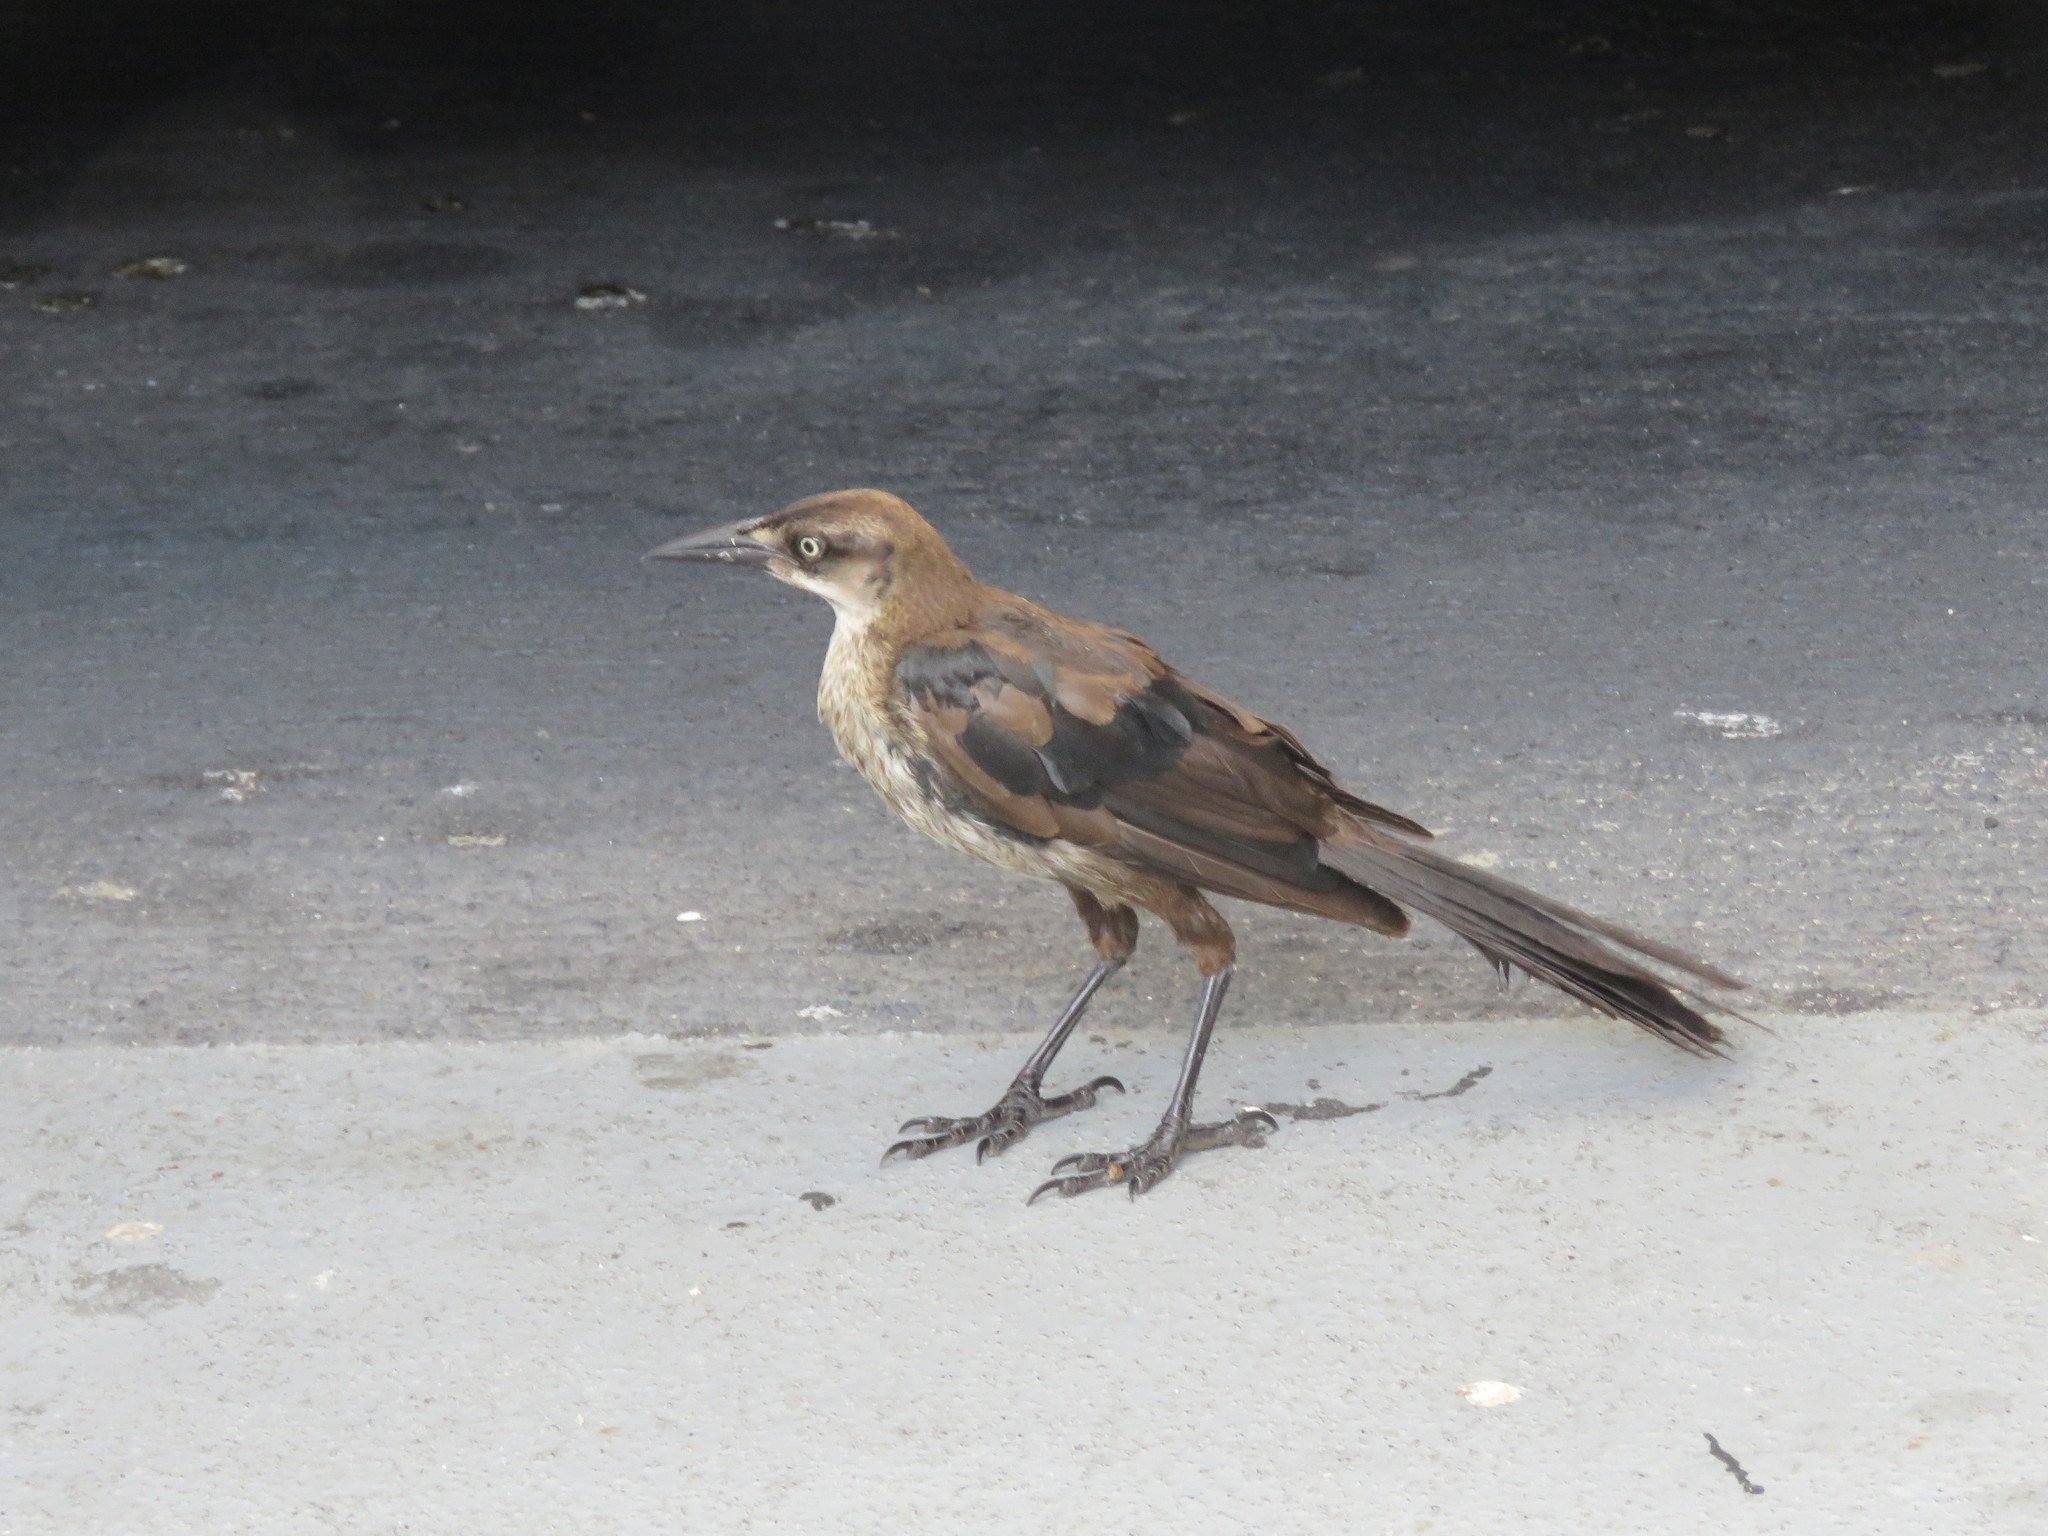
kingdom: Animalia
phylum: Chordata
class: Aves
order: Passeriformes
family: Icteridae
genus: Quiscalus
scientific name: Quiscalus mexicanus
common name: Great-tailed grackle
